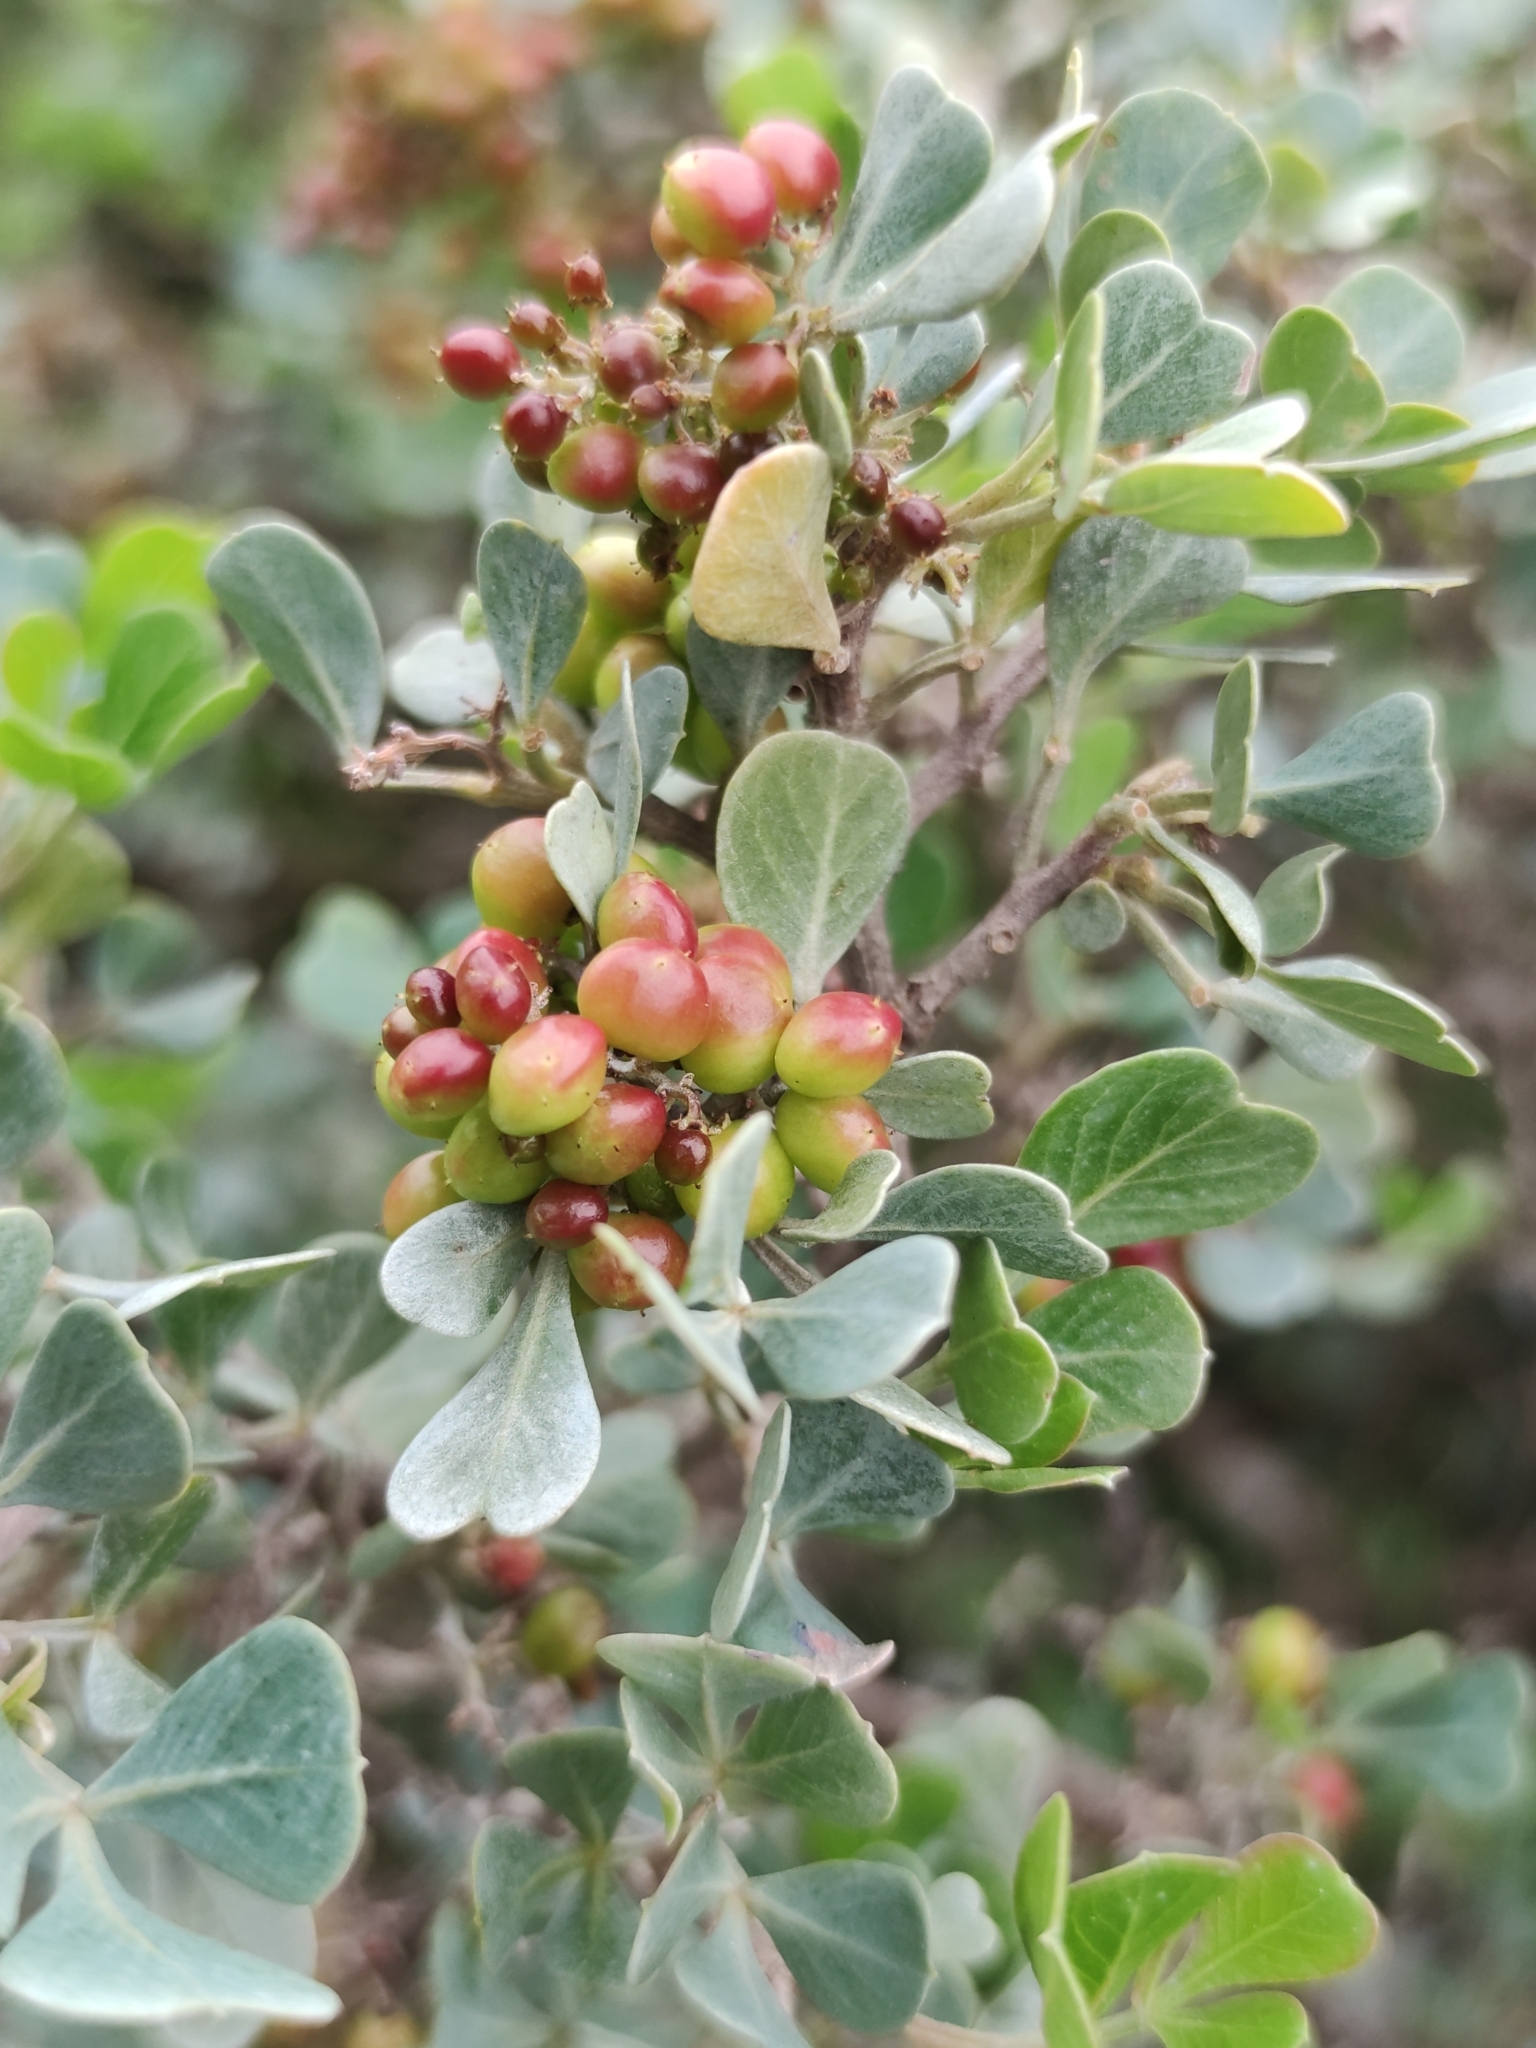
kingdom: Plantae
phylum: Tracheophyta
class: Magnoliopsida
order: Sapindales
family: Anacardiaceae
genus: Searsia
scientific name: Searsia glauca
